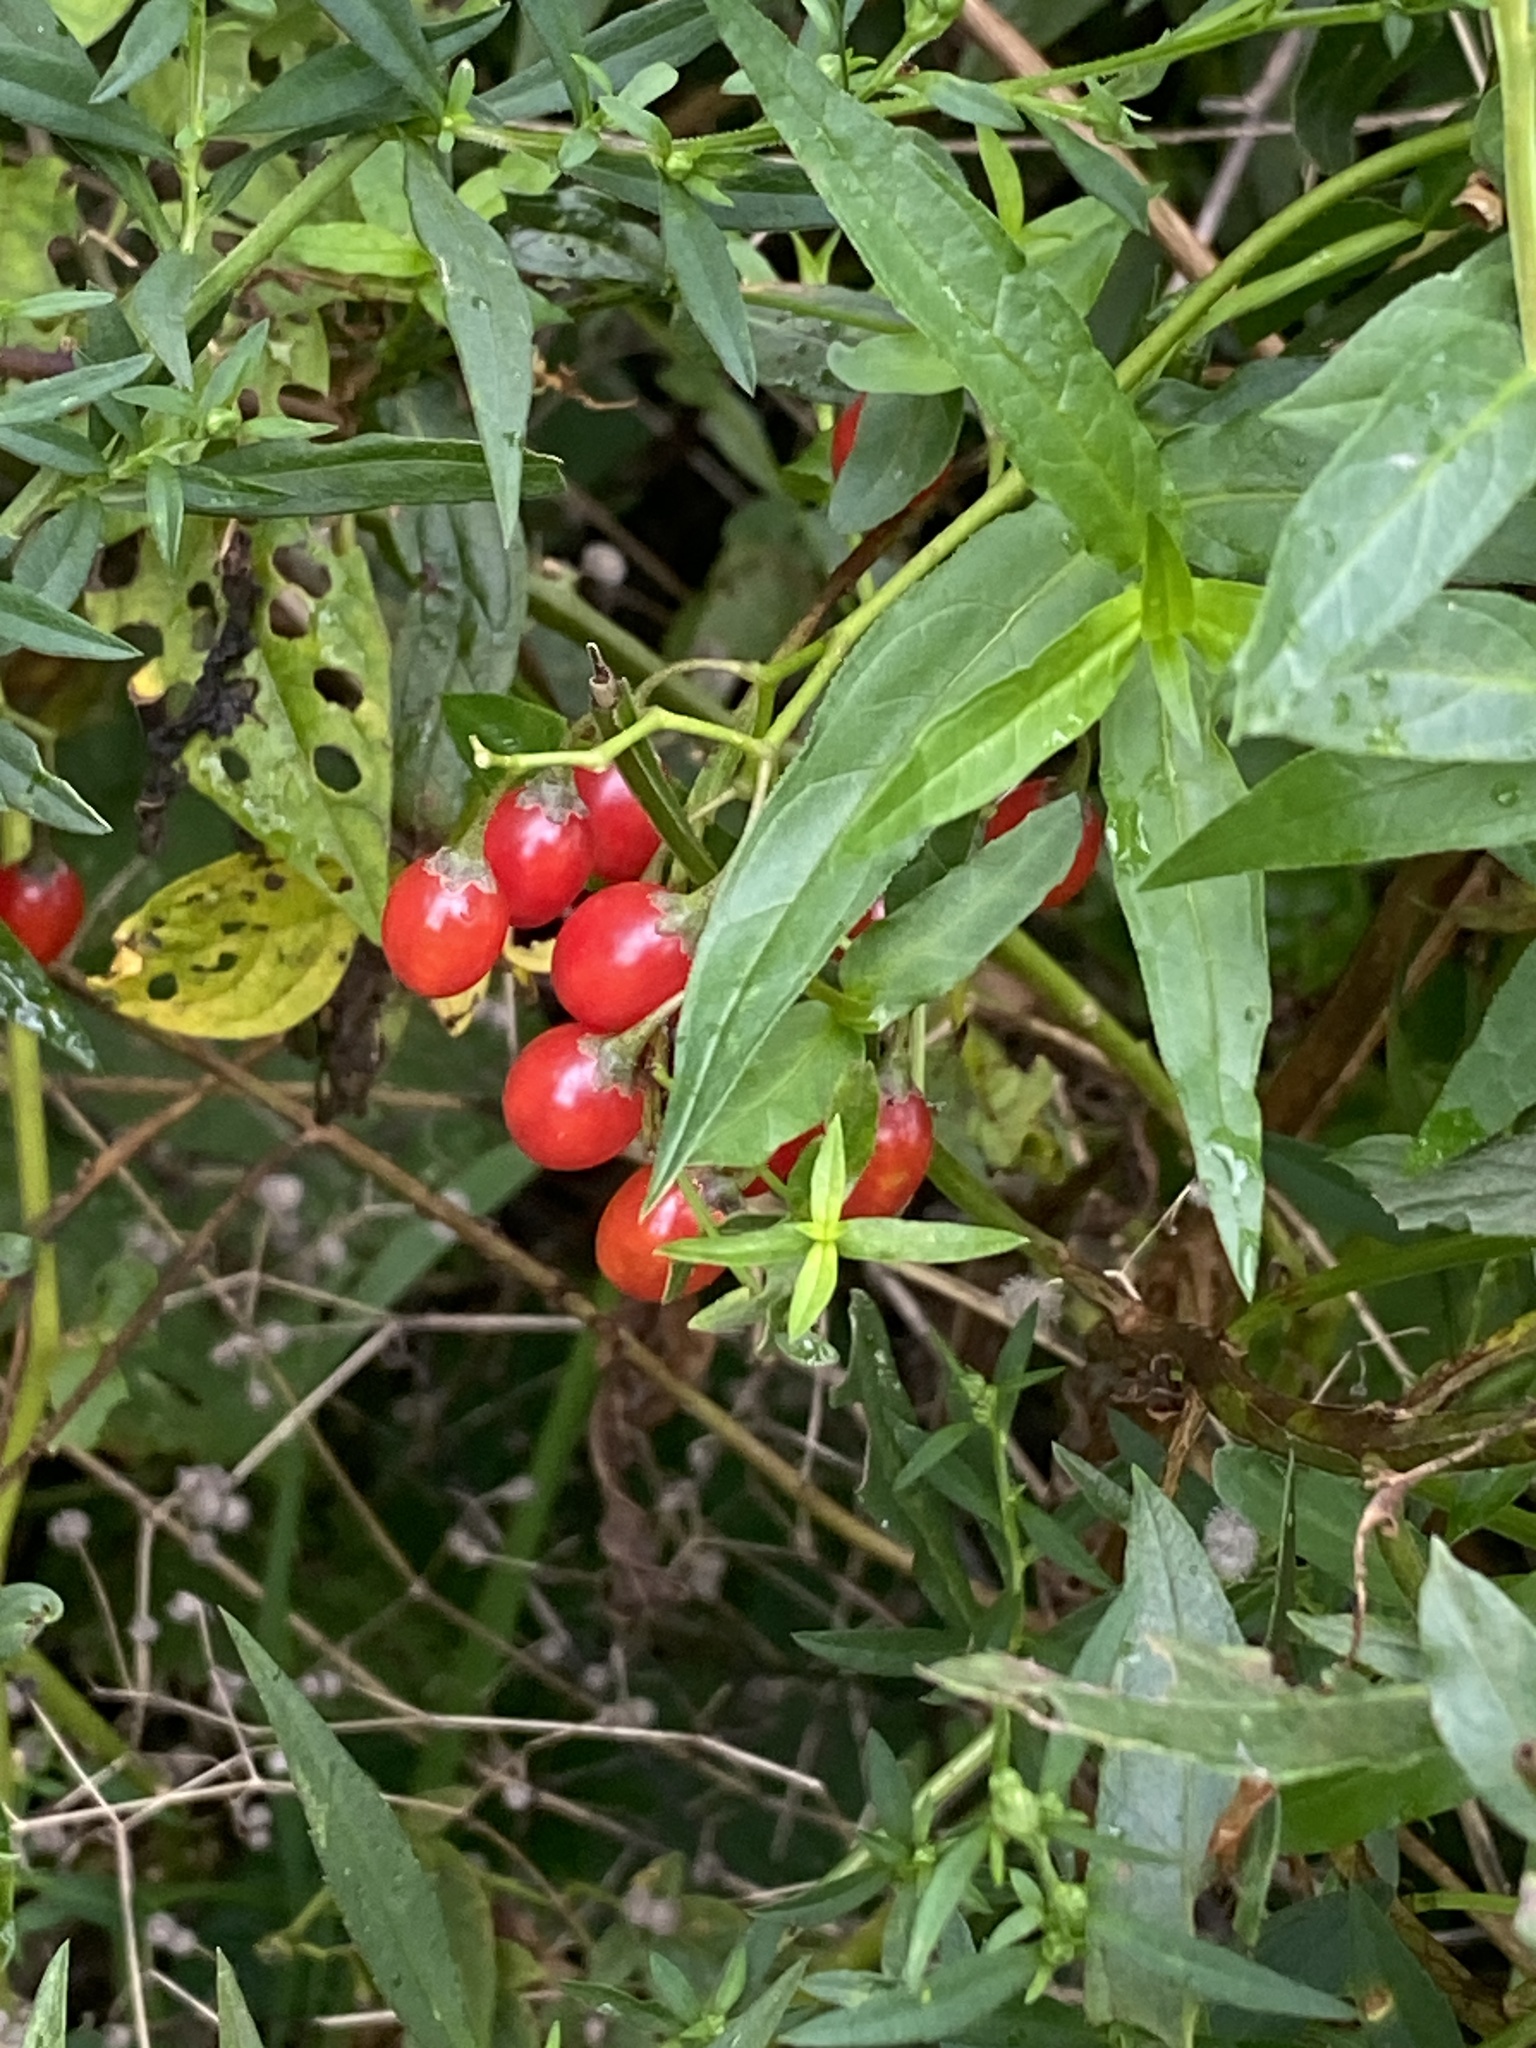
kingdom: Plantae
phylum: Tracheophyta
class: Magnoliopsida
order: Solanales
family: Solanaceae
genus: Solanum
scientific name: Solanum dulcamara
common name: Climbing nightshade
